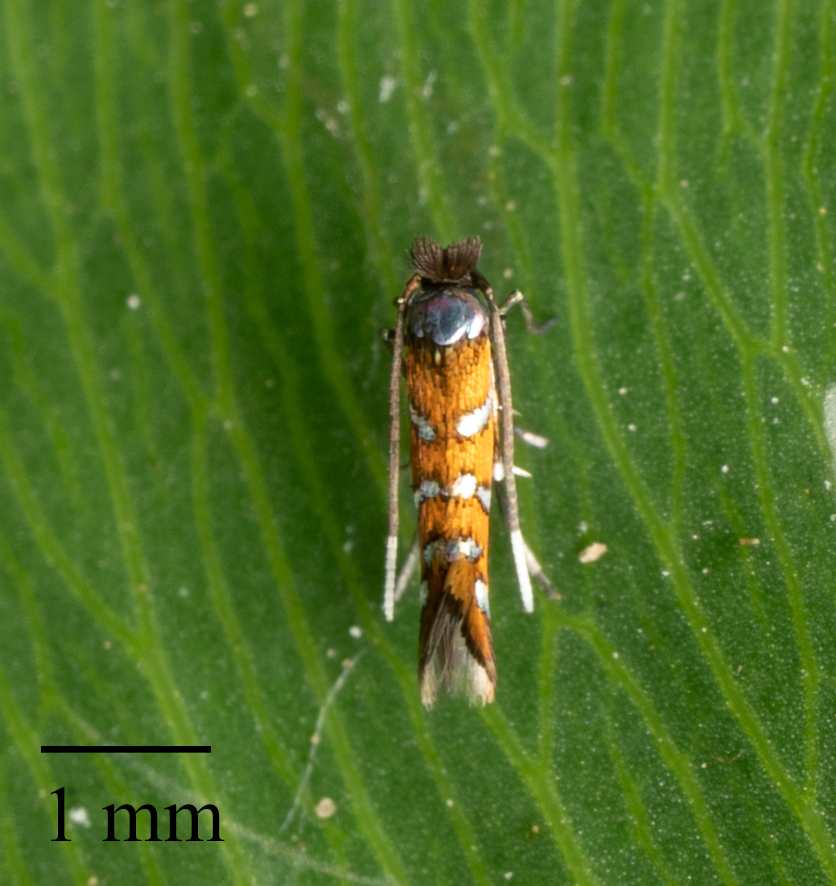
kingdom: Animalia
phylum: Arthropoda
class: Insecta
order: Lepidoptera
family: Gracillariidae
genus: Porphyrosela
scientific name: Porphyrosela minuta
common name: Leaf miner moth
